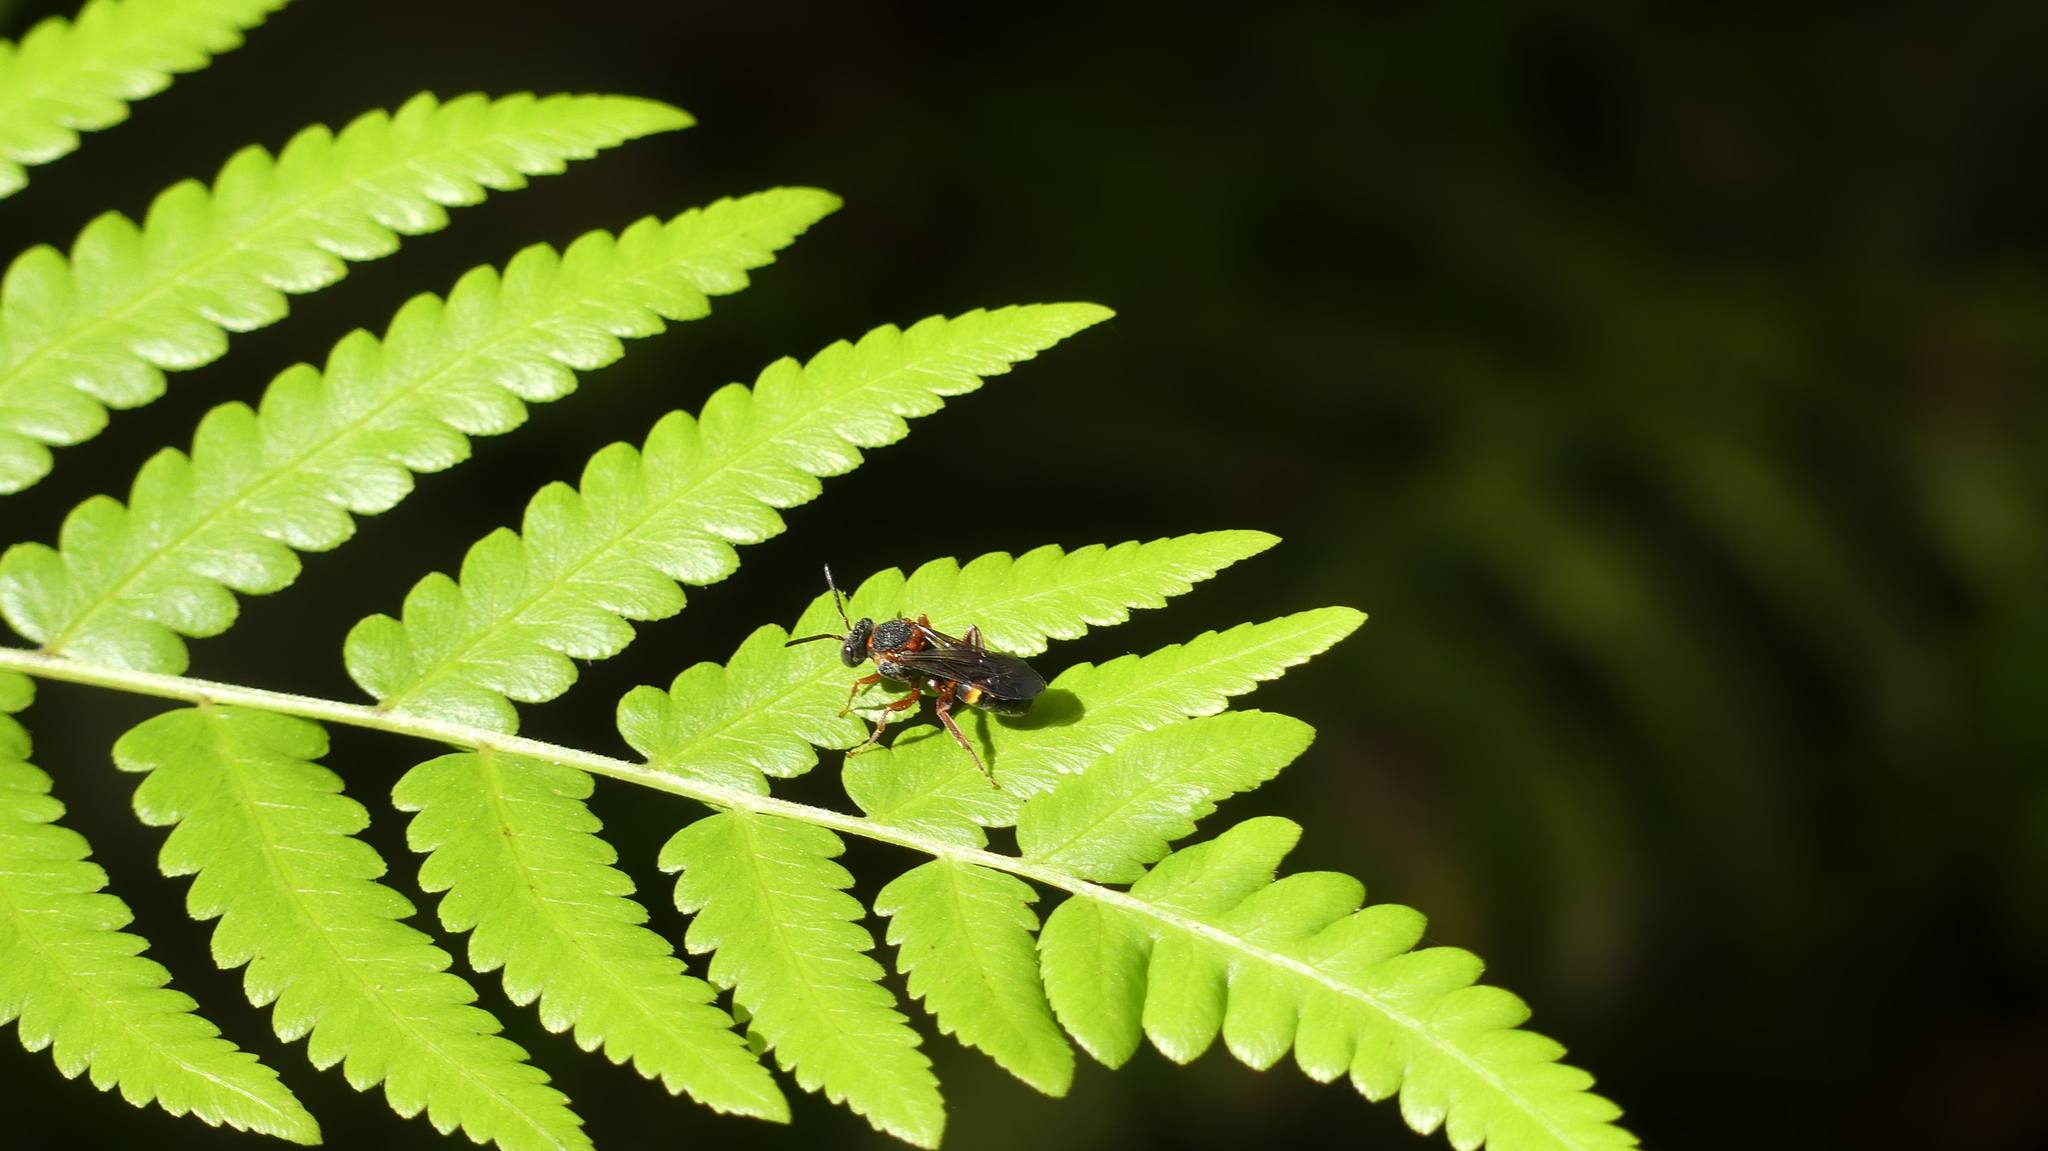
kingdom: Animalia
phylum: Arthropoda
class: Insecta
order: Hymenoptera
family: Apidae
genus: Nomada
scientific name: Nomada fervida
